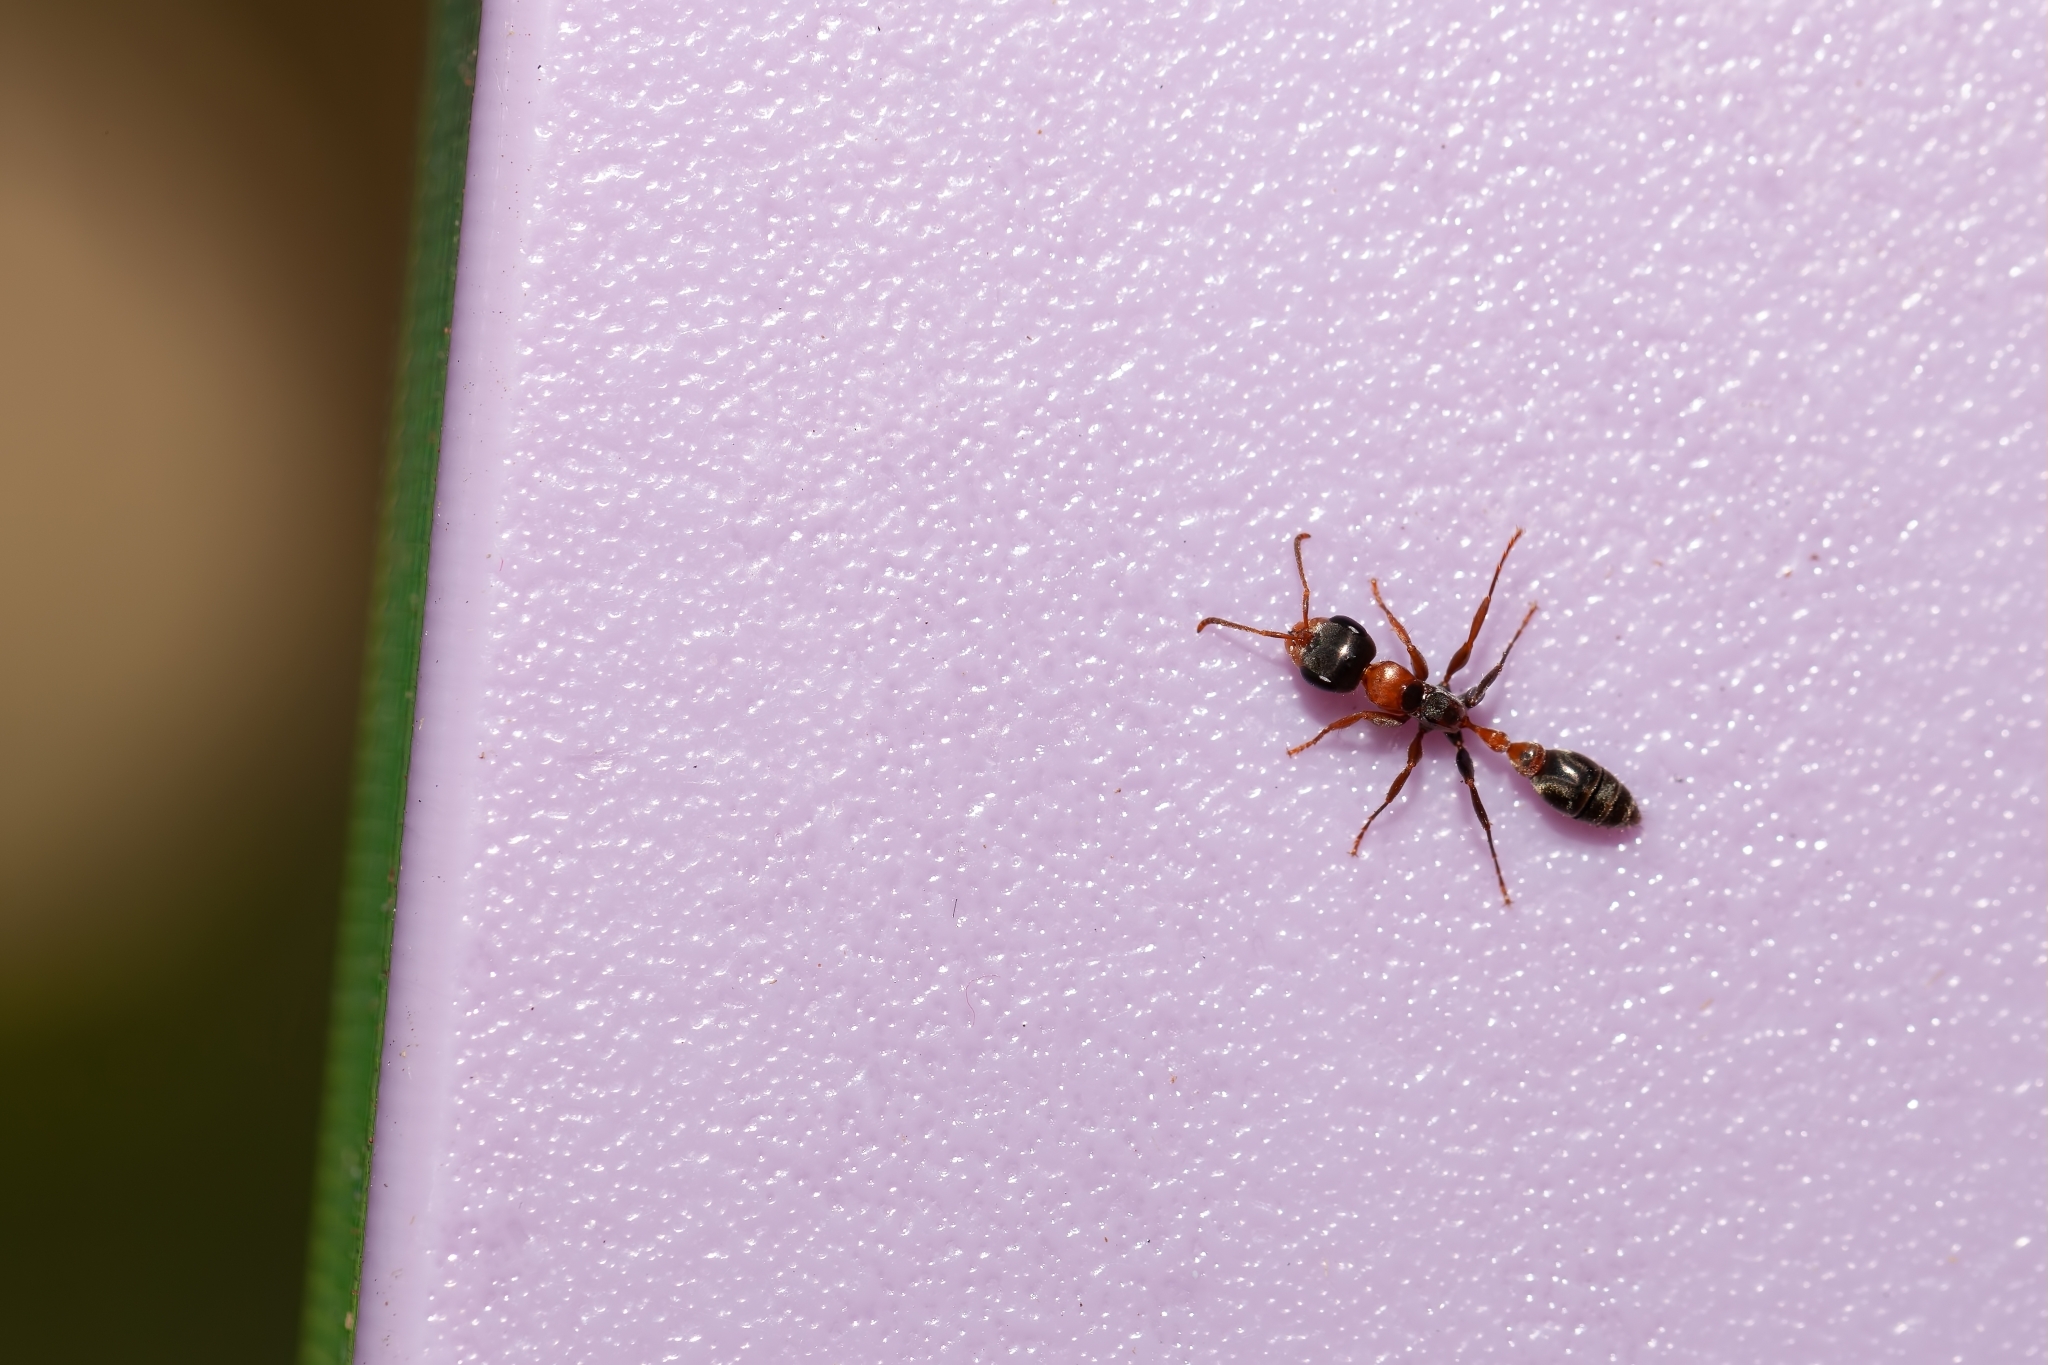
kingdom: Animalia
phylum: Arthropoda
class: Insecta
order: Hymenoptera
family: Formicidae
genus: Pseudomyrmex
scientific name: Pseudomyrmex gracilis
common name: Graceful twig ant
